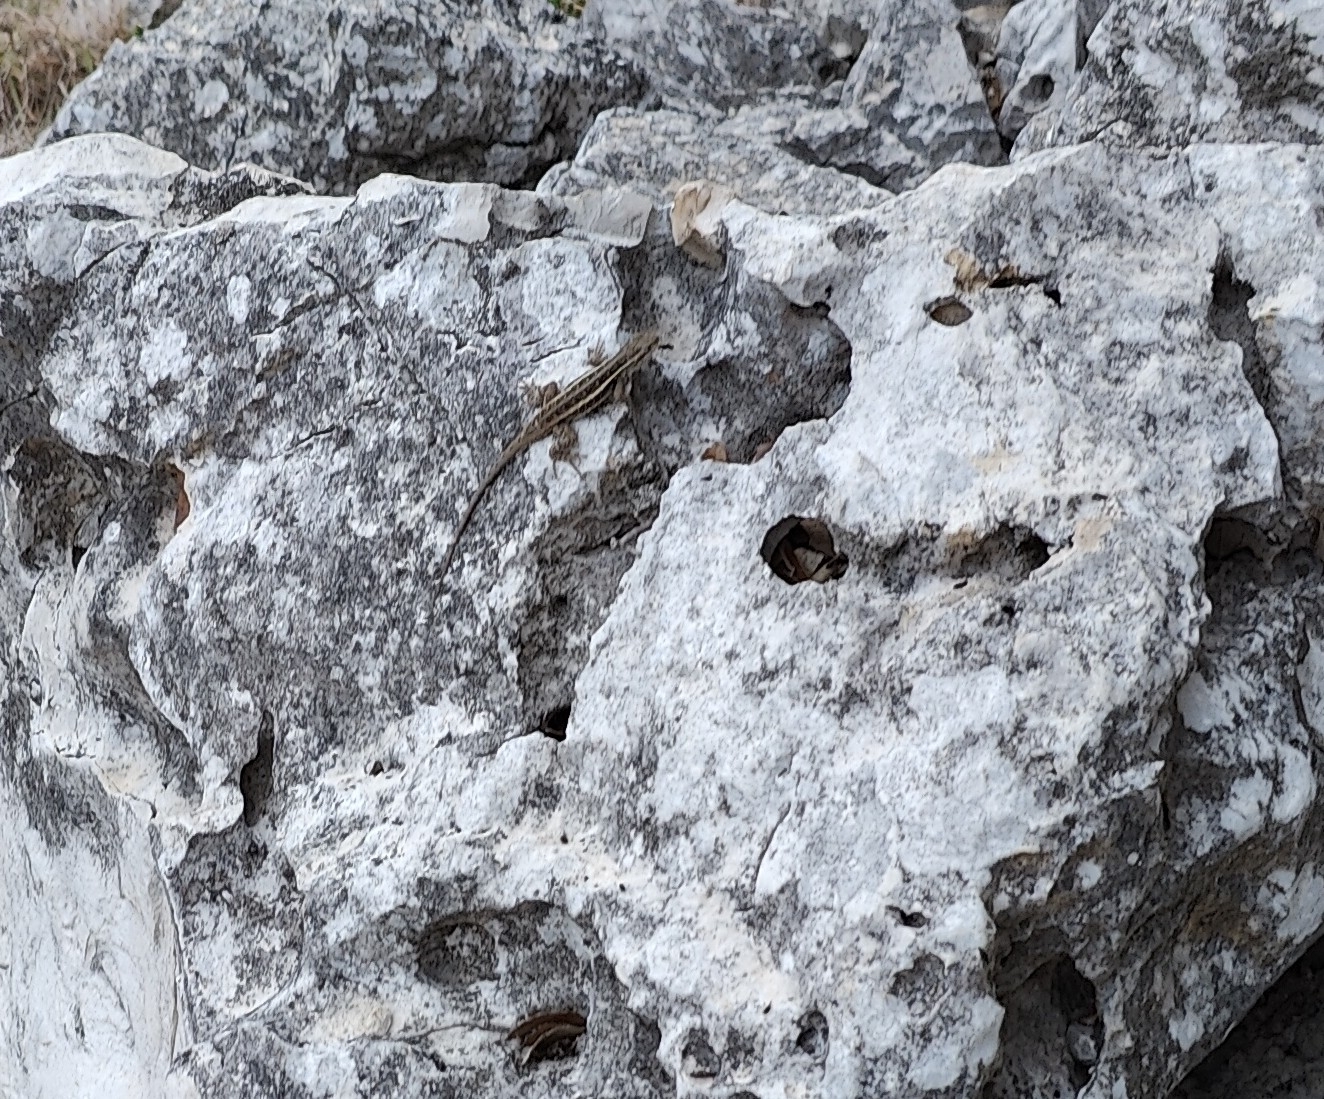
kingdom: Animalia
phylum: Chordata
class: Squamata
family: Phrynosomatidae
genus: Sceloporus
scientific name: Sceloporus variabilis
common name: Rosebelly lizard
